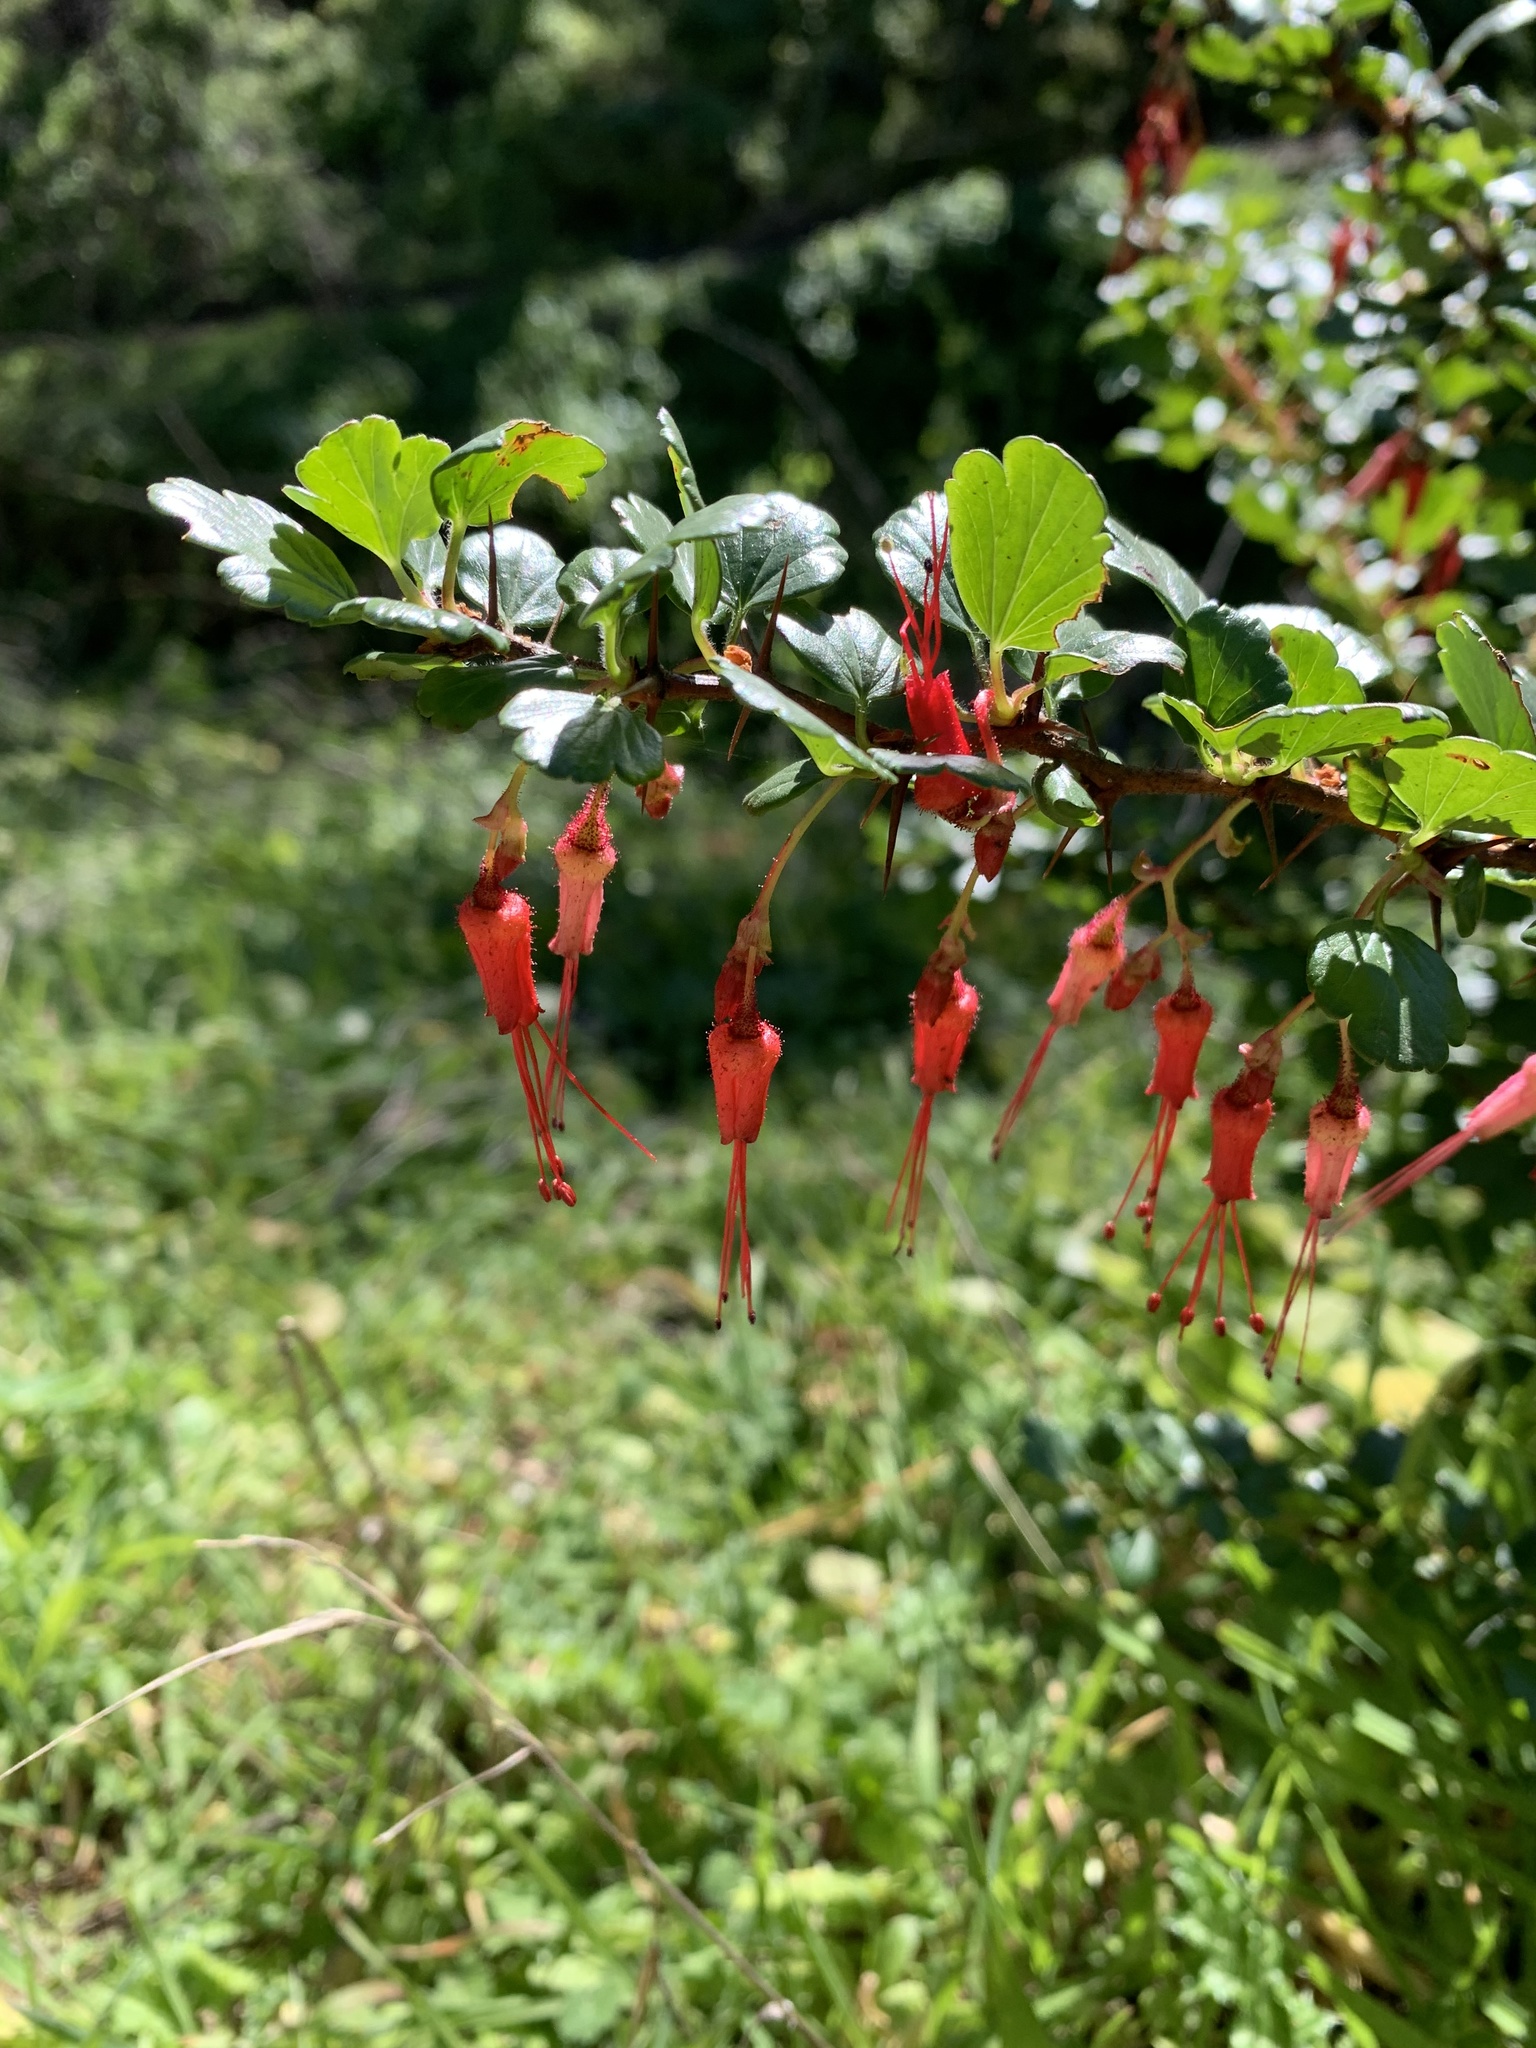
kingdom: Plantae
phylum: Tracheophyta
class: Magnoliopsida
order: Saxifragales
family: Grossulariaceae
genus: Ribes
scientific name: Ribes speciosum
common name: Fuchsia-flower gooseberry
